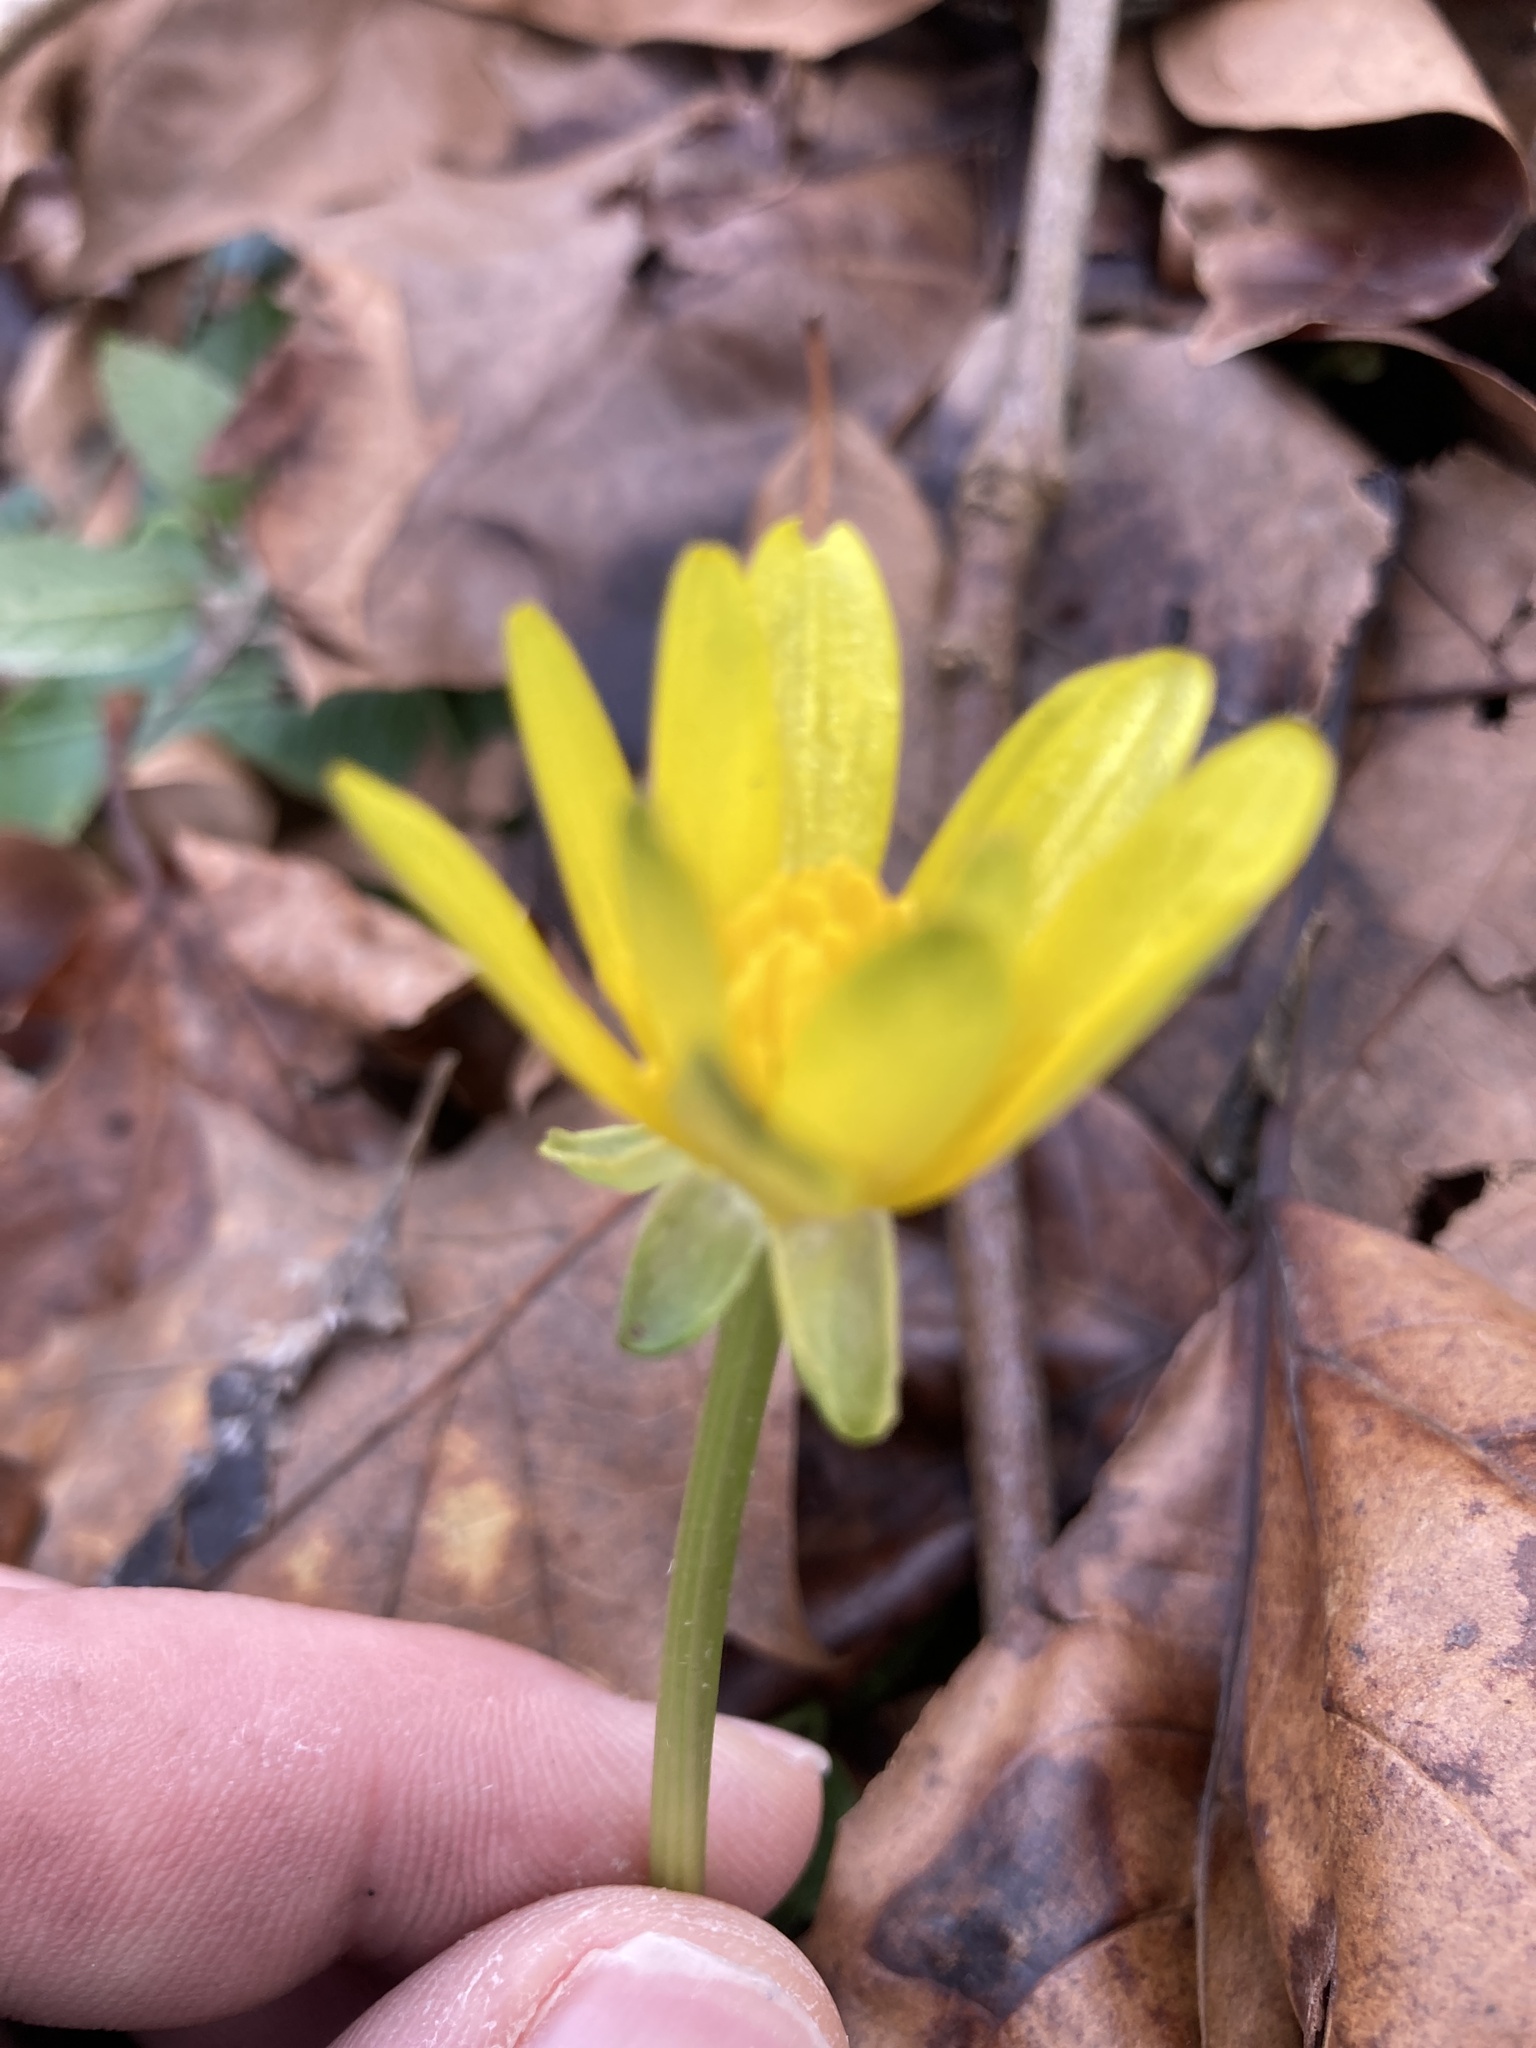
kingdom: Plantae
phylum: Tracheophyta
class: Magnoliopsida
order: Ranunculales
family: Ranunculaceae
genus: Ficaria
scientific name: Ficaria verna
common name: Lesser celandine
